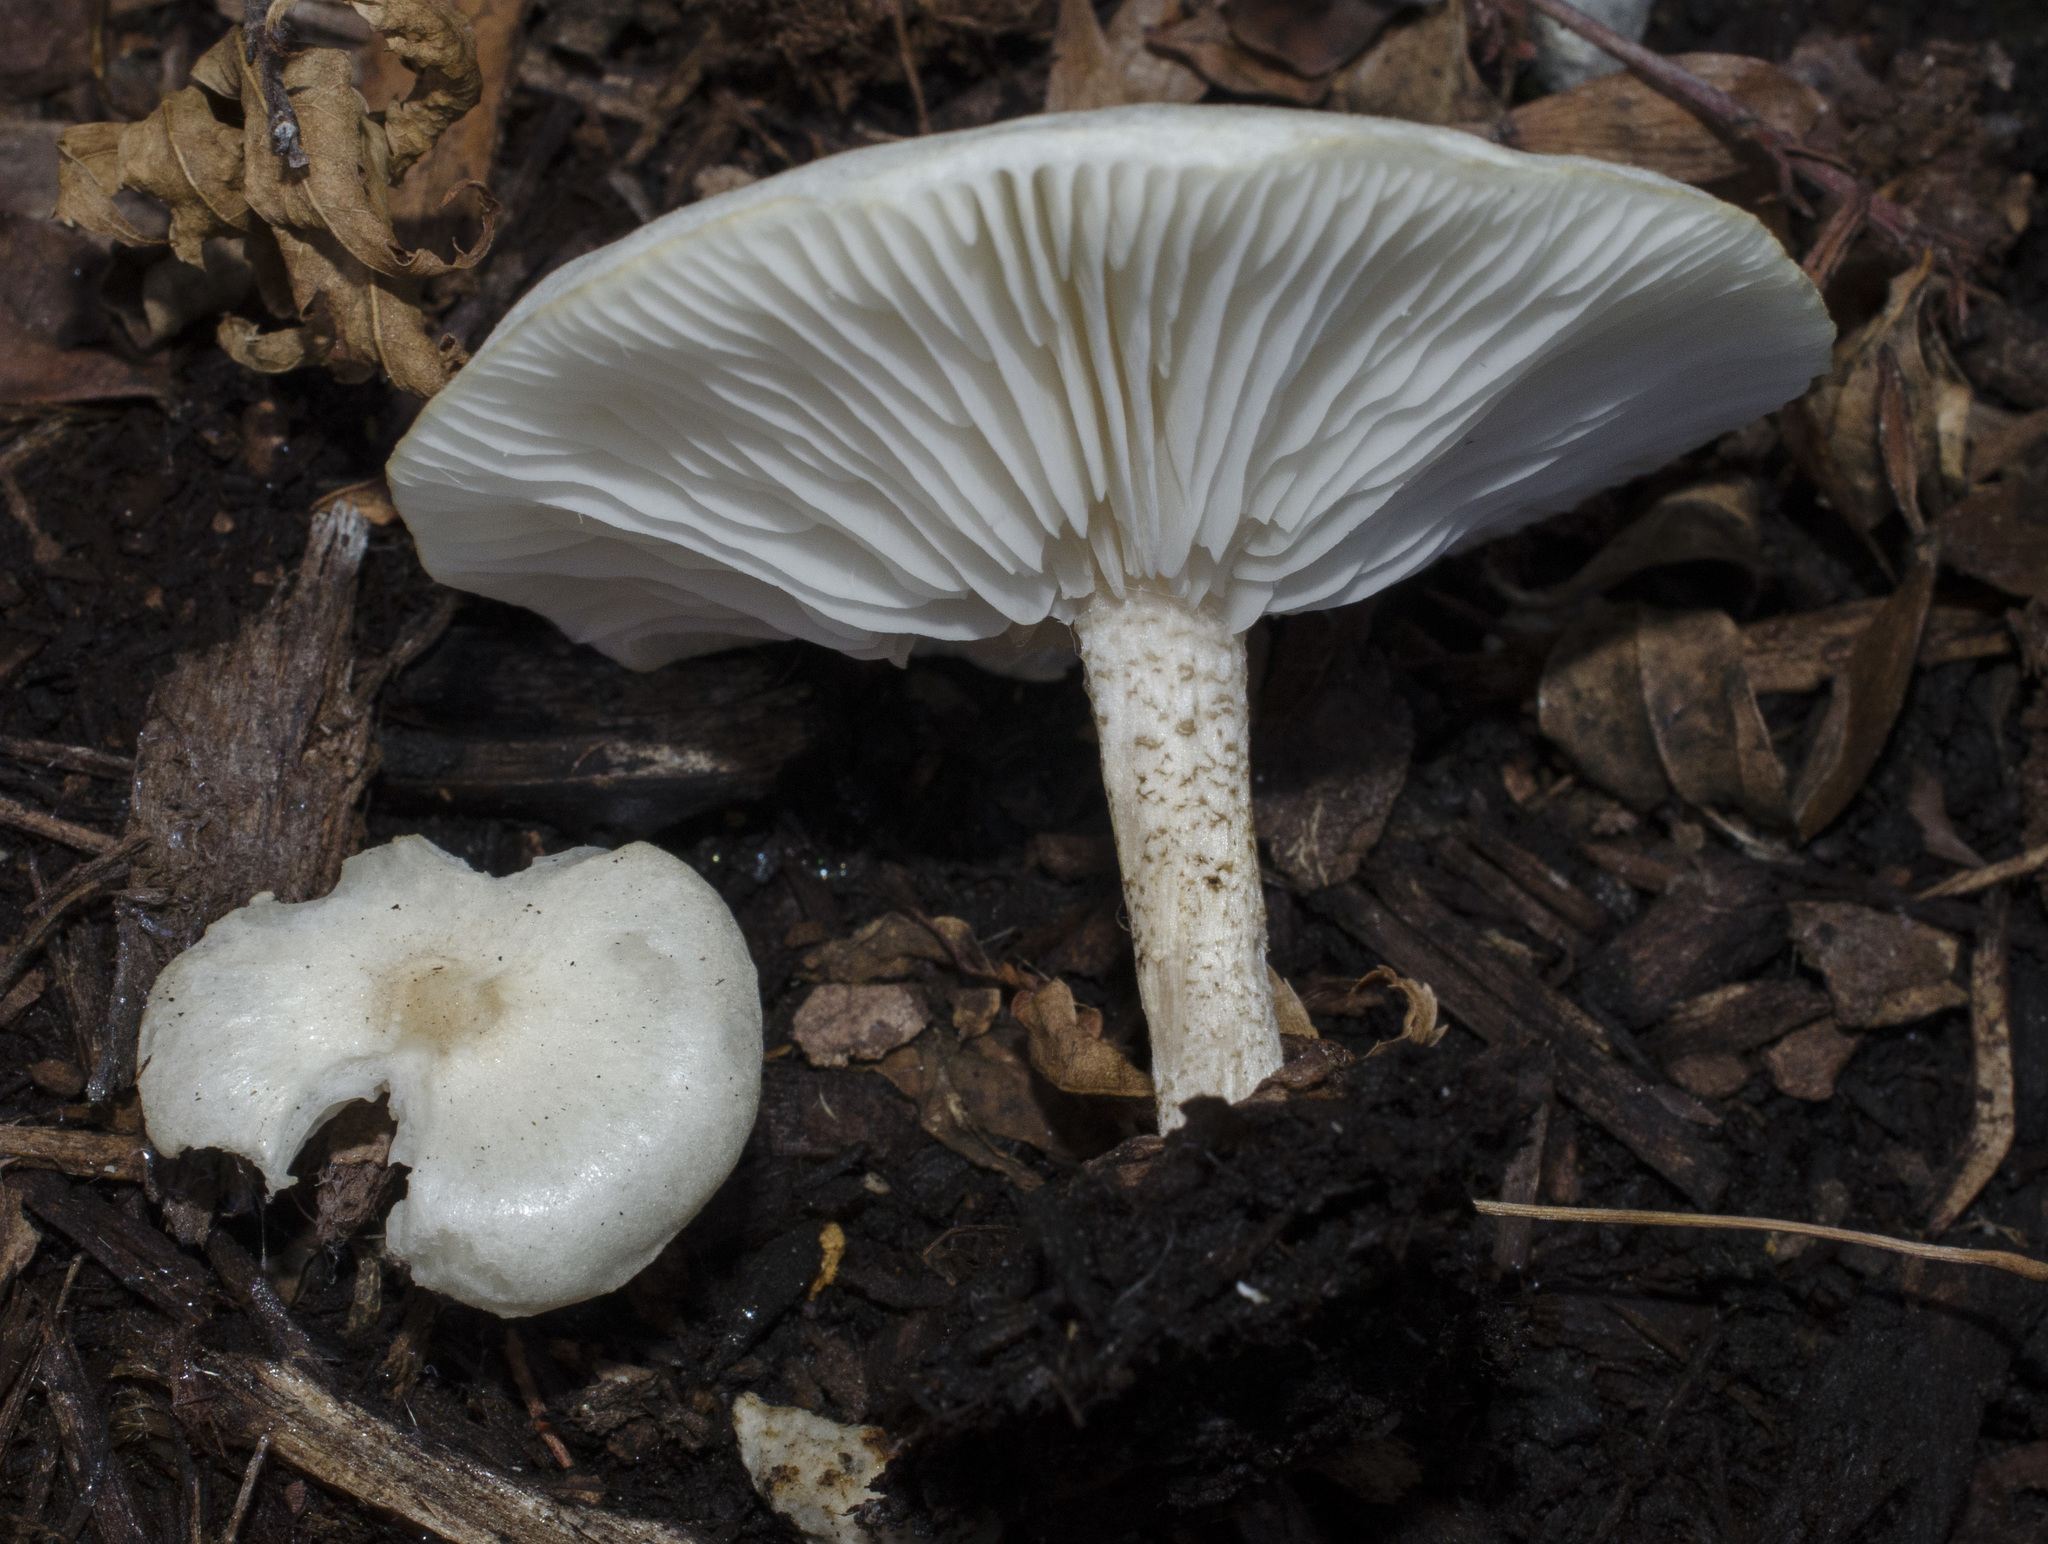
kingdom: Fungi
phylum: Basidiomycota
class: Agaricomycetes
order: Agaricales
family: Tricholomataceae
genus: Melanoleuca
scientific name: Melanoleuca verrucipes
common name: Warty cavalier
